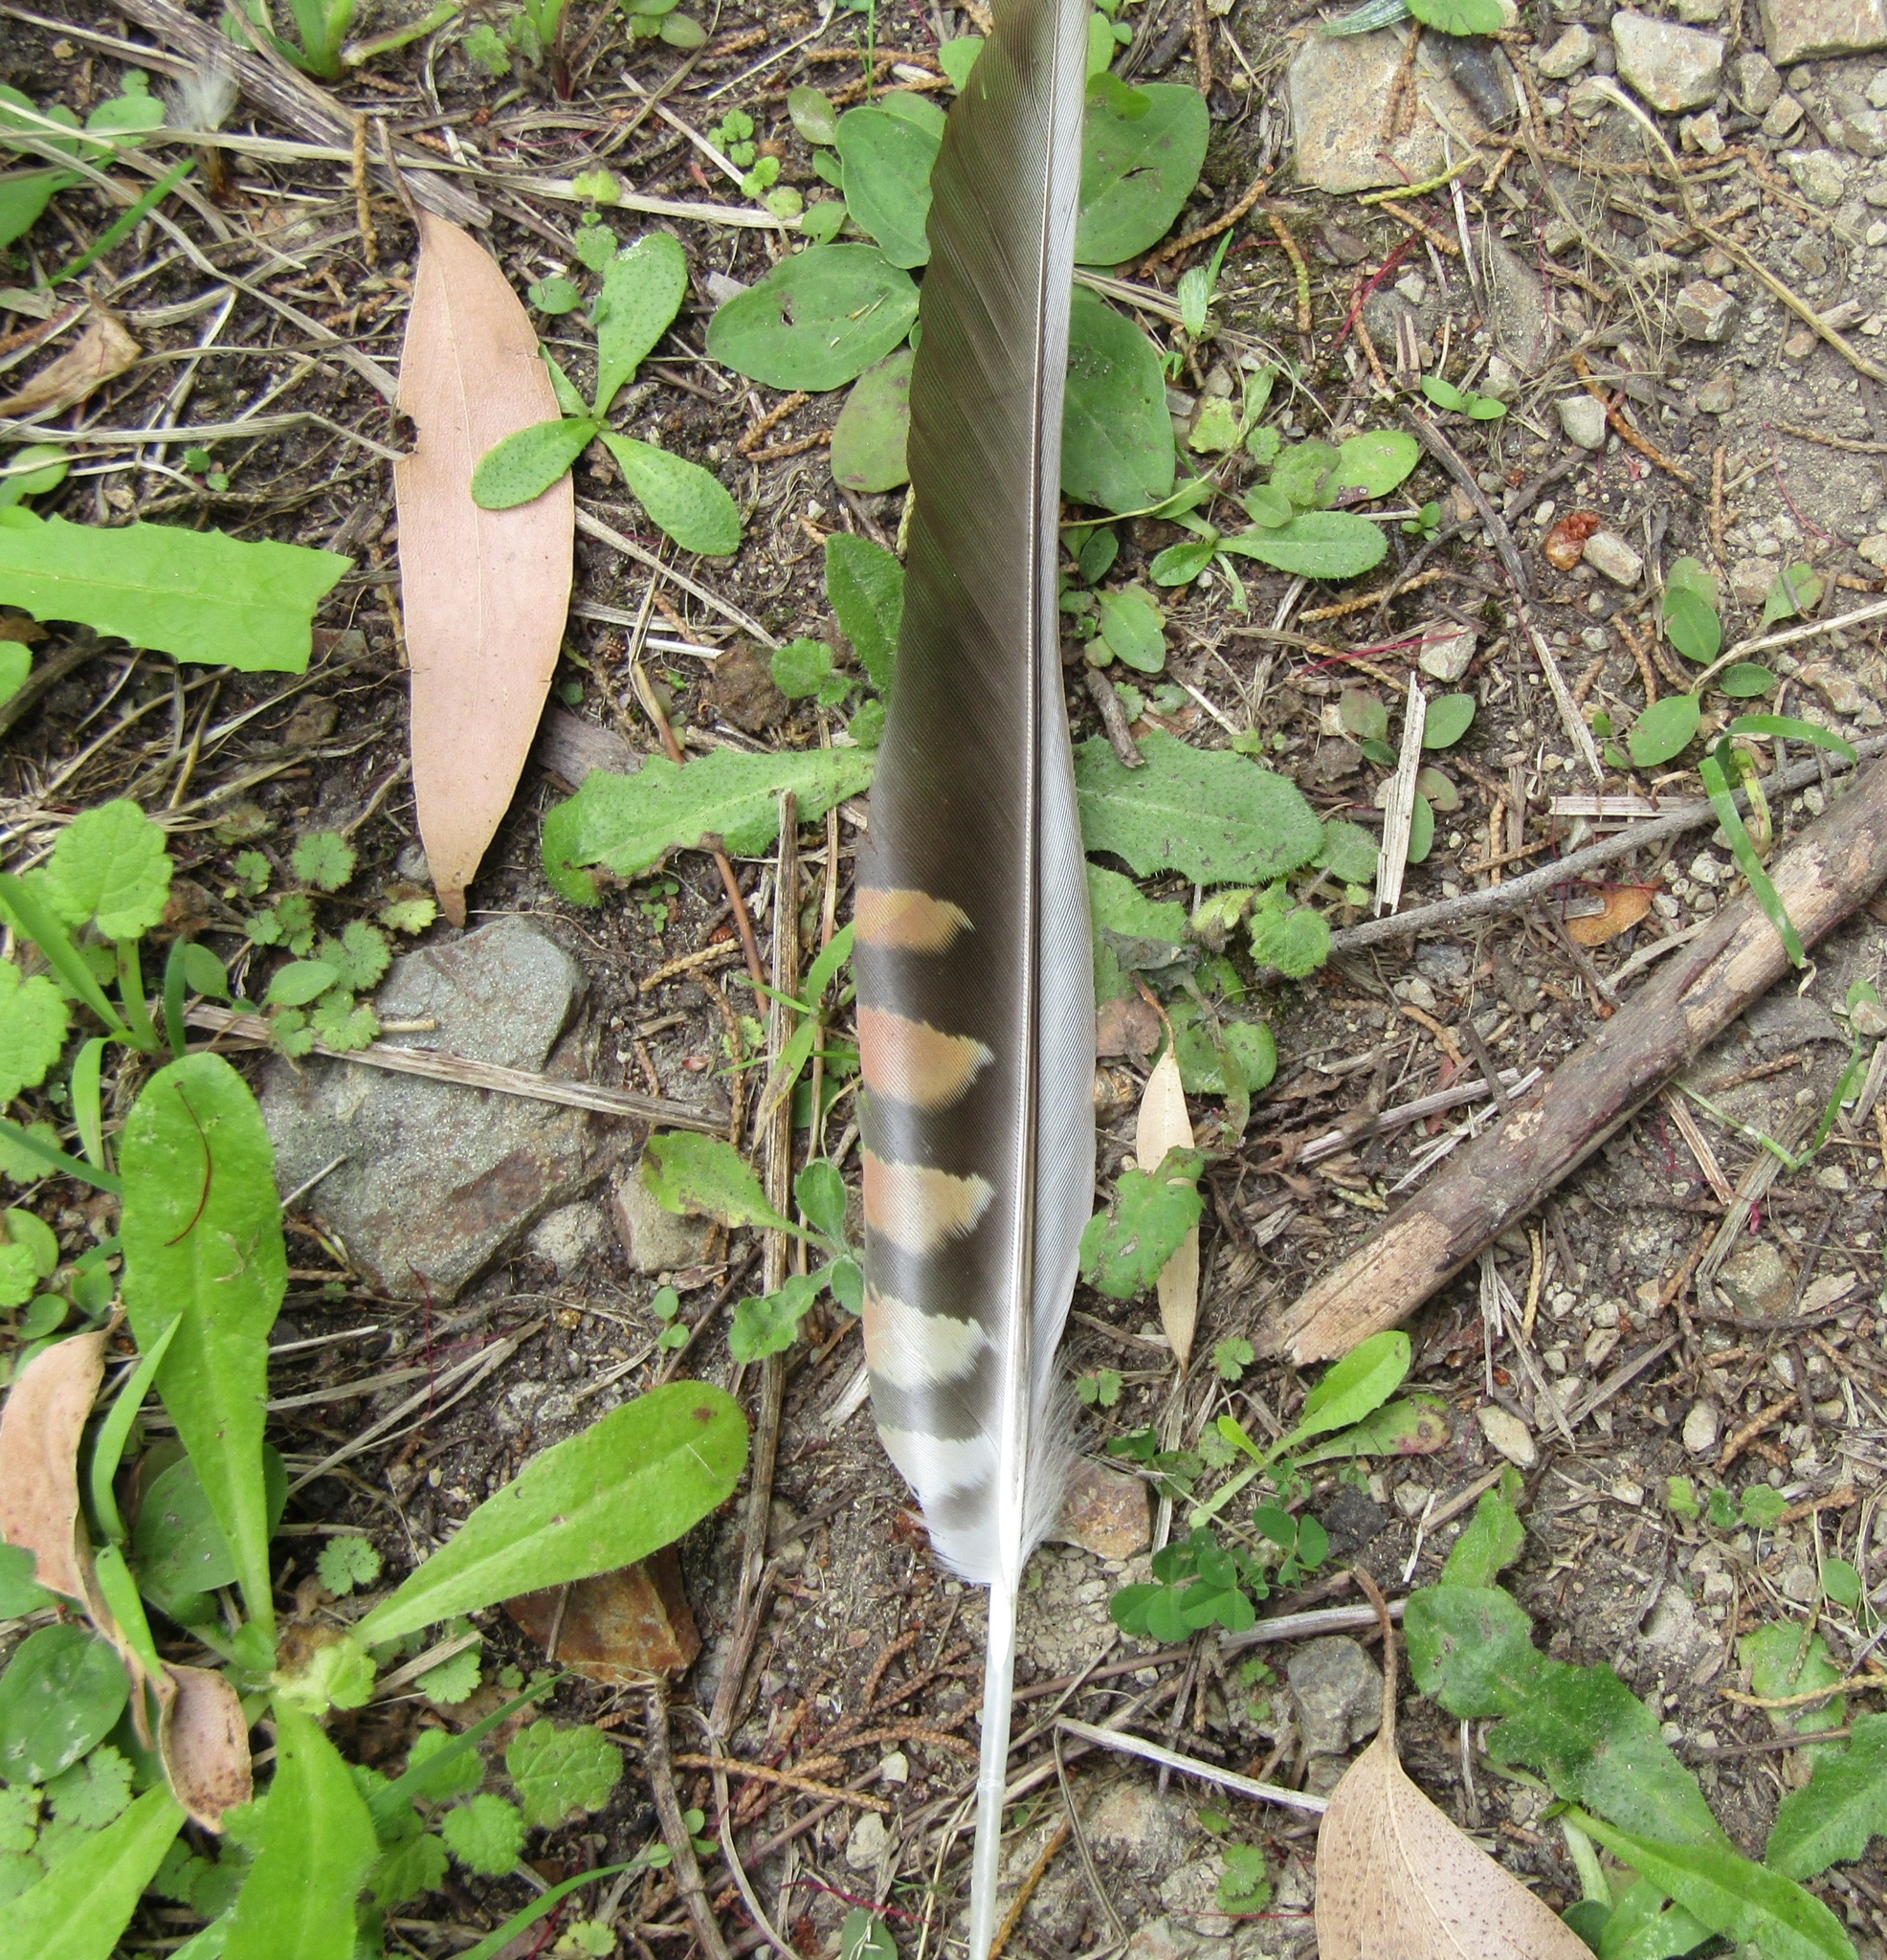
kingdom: Animalia
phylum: Chordata
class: Aves
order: Psittaciformes
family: Psittacidae
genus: Nestor
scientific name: Nestor meridionalis
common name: New zealand kaka
